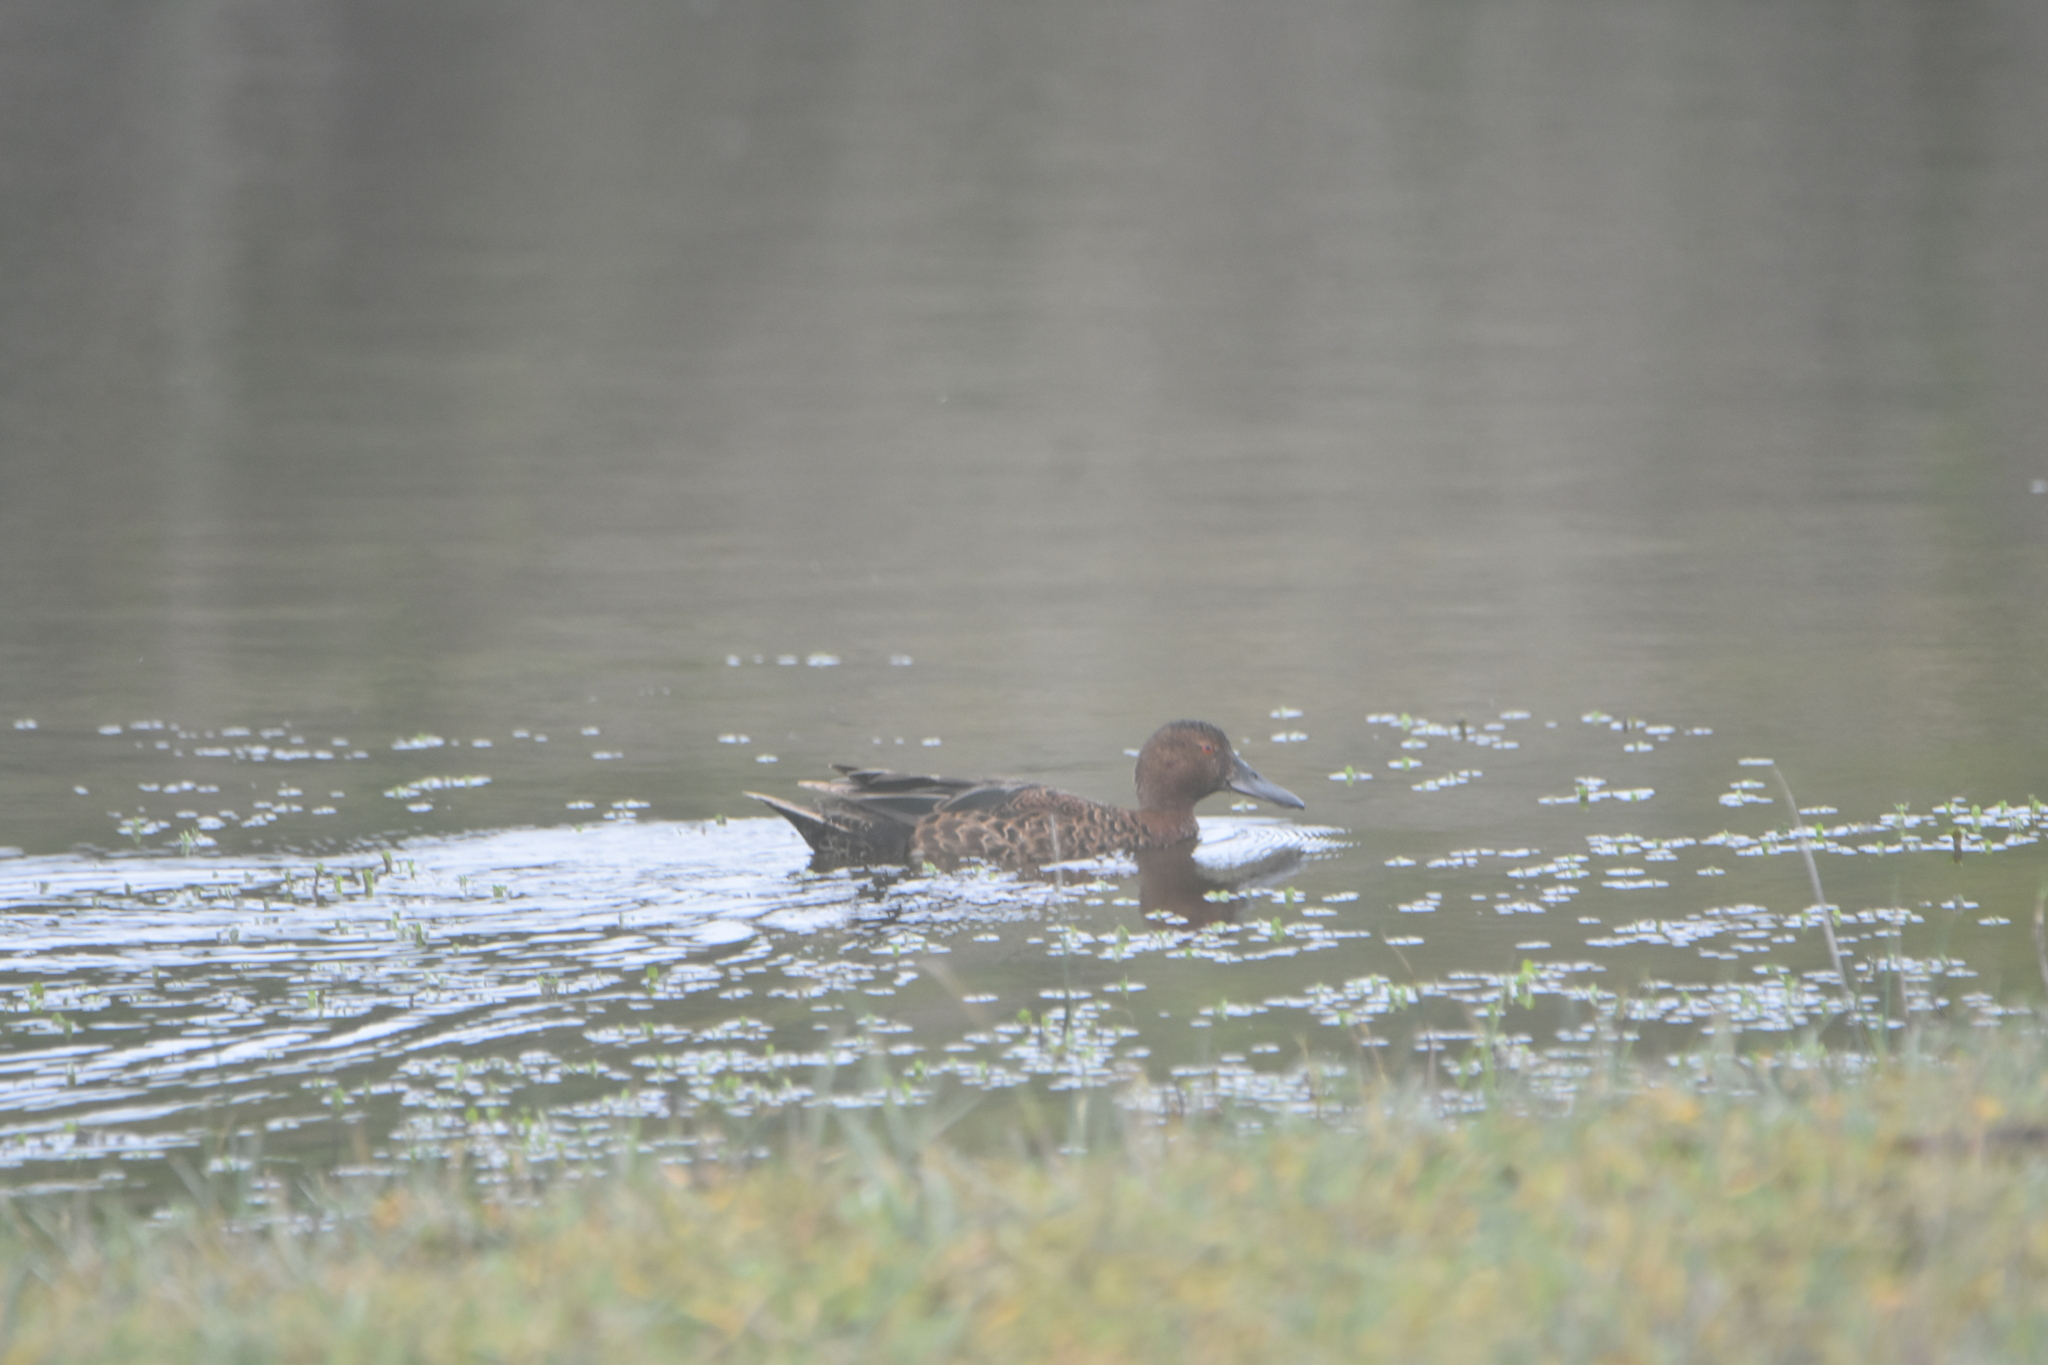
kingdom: Animalia
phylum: Chordata
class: Aves
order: Anseriformes
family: Anatidae
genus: Spatula
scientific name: Spatula cyanoptera
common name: Cinnamon teal
